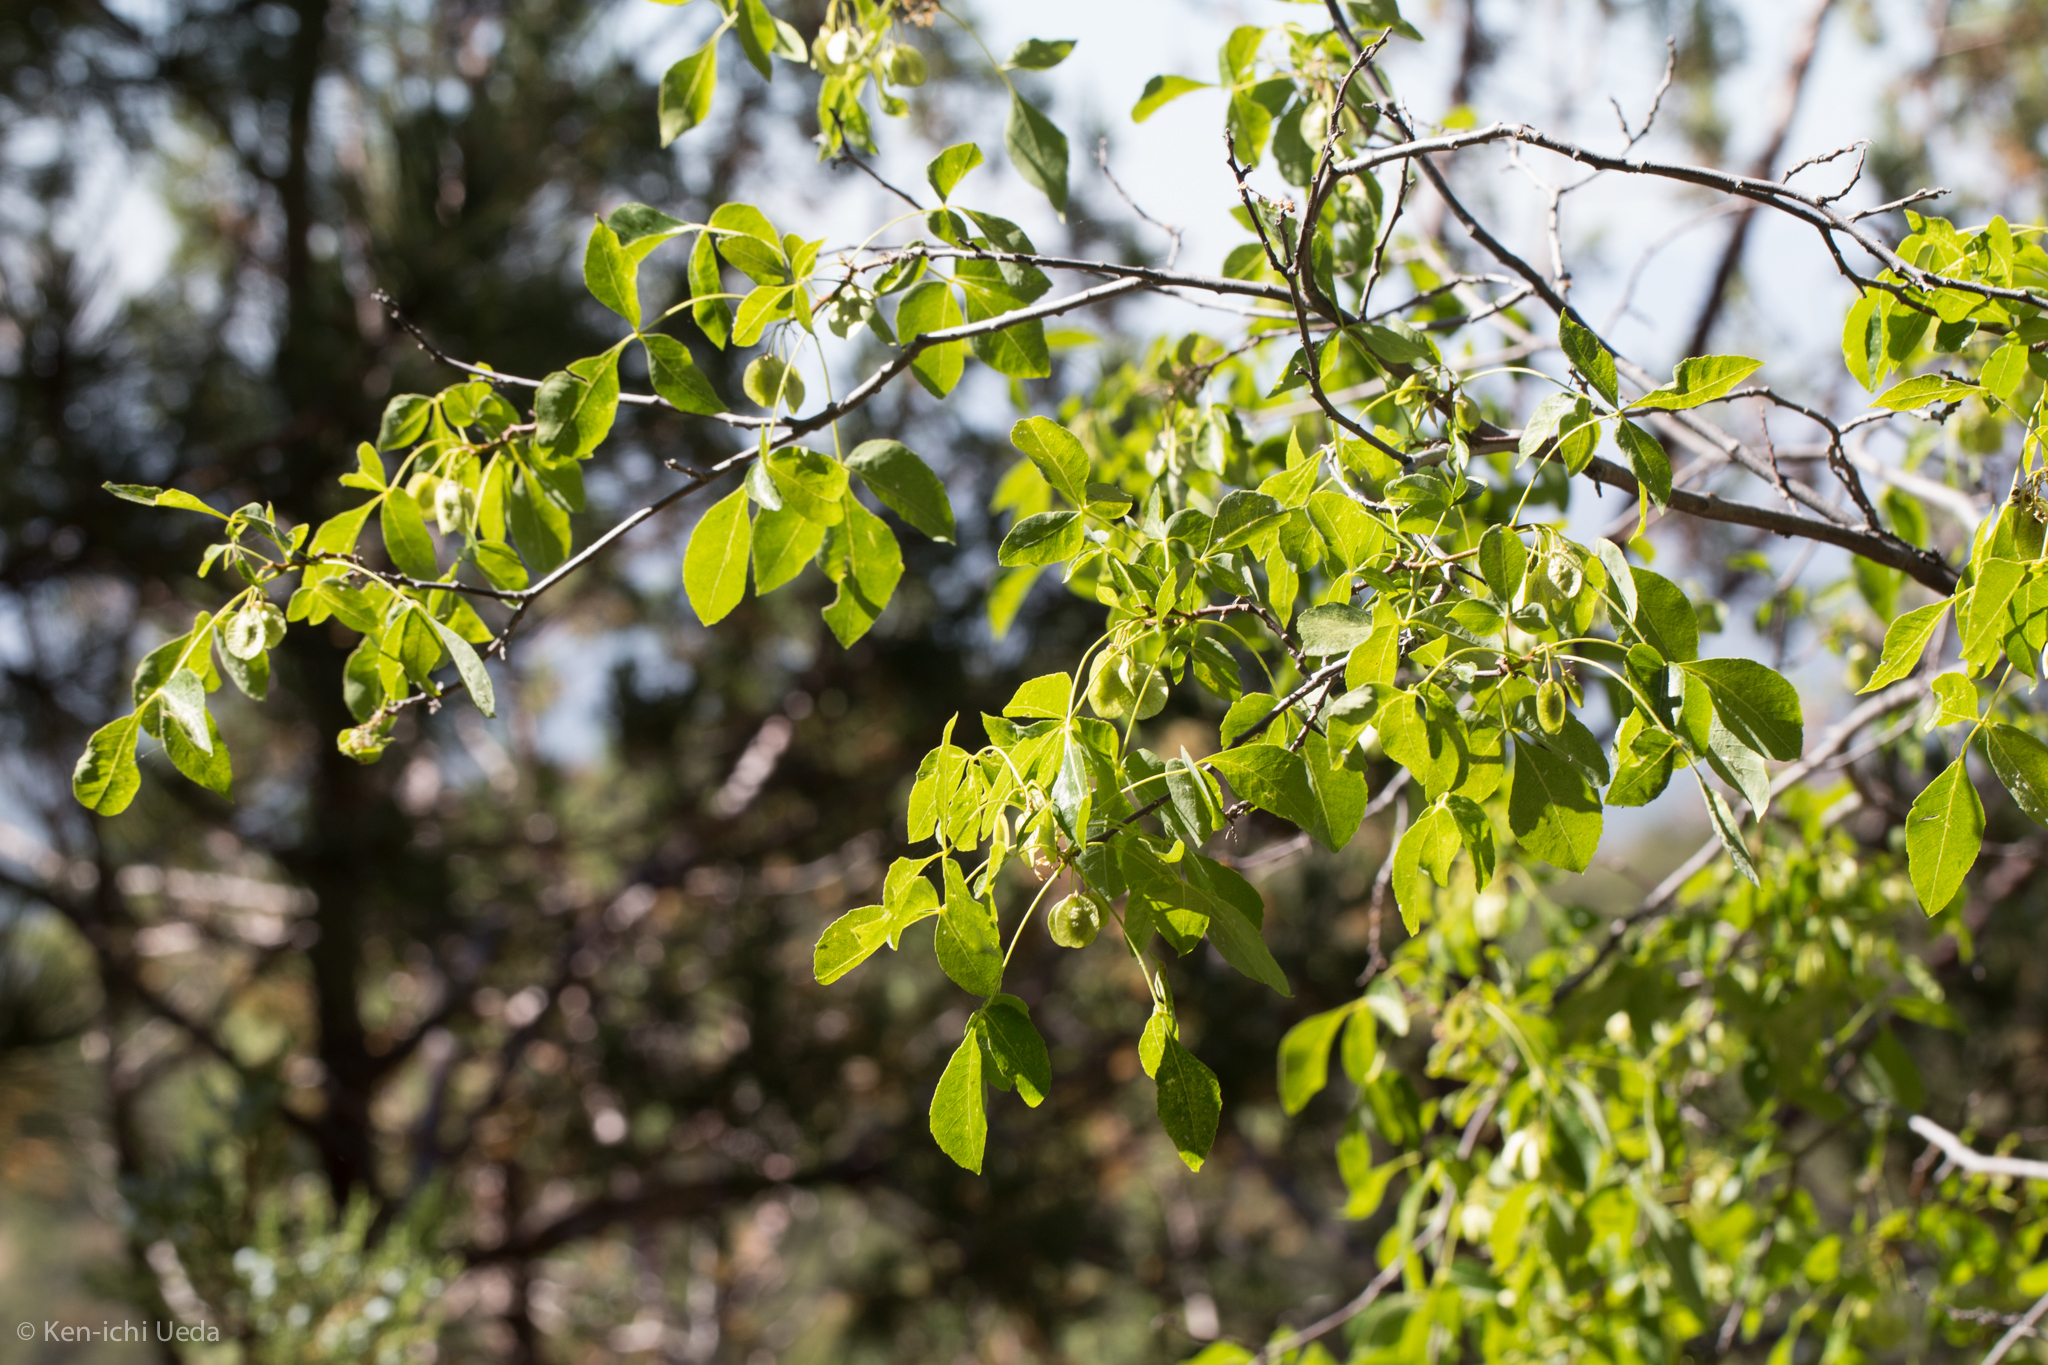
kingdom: Plantae
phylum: Tracheophyta
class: Magnoliopsida
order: Sapindales
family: Rutaceae
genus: Ptelea
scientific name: Ptelea trifoliata
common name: Common hop-tree
